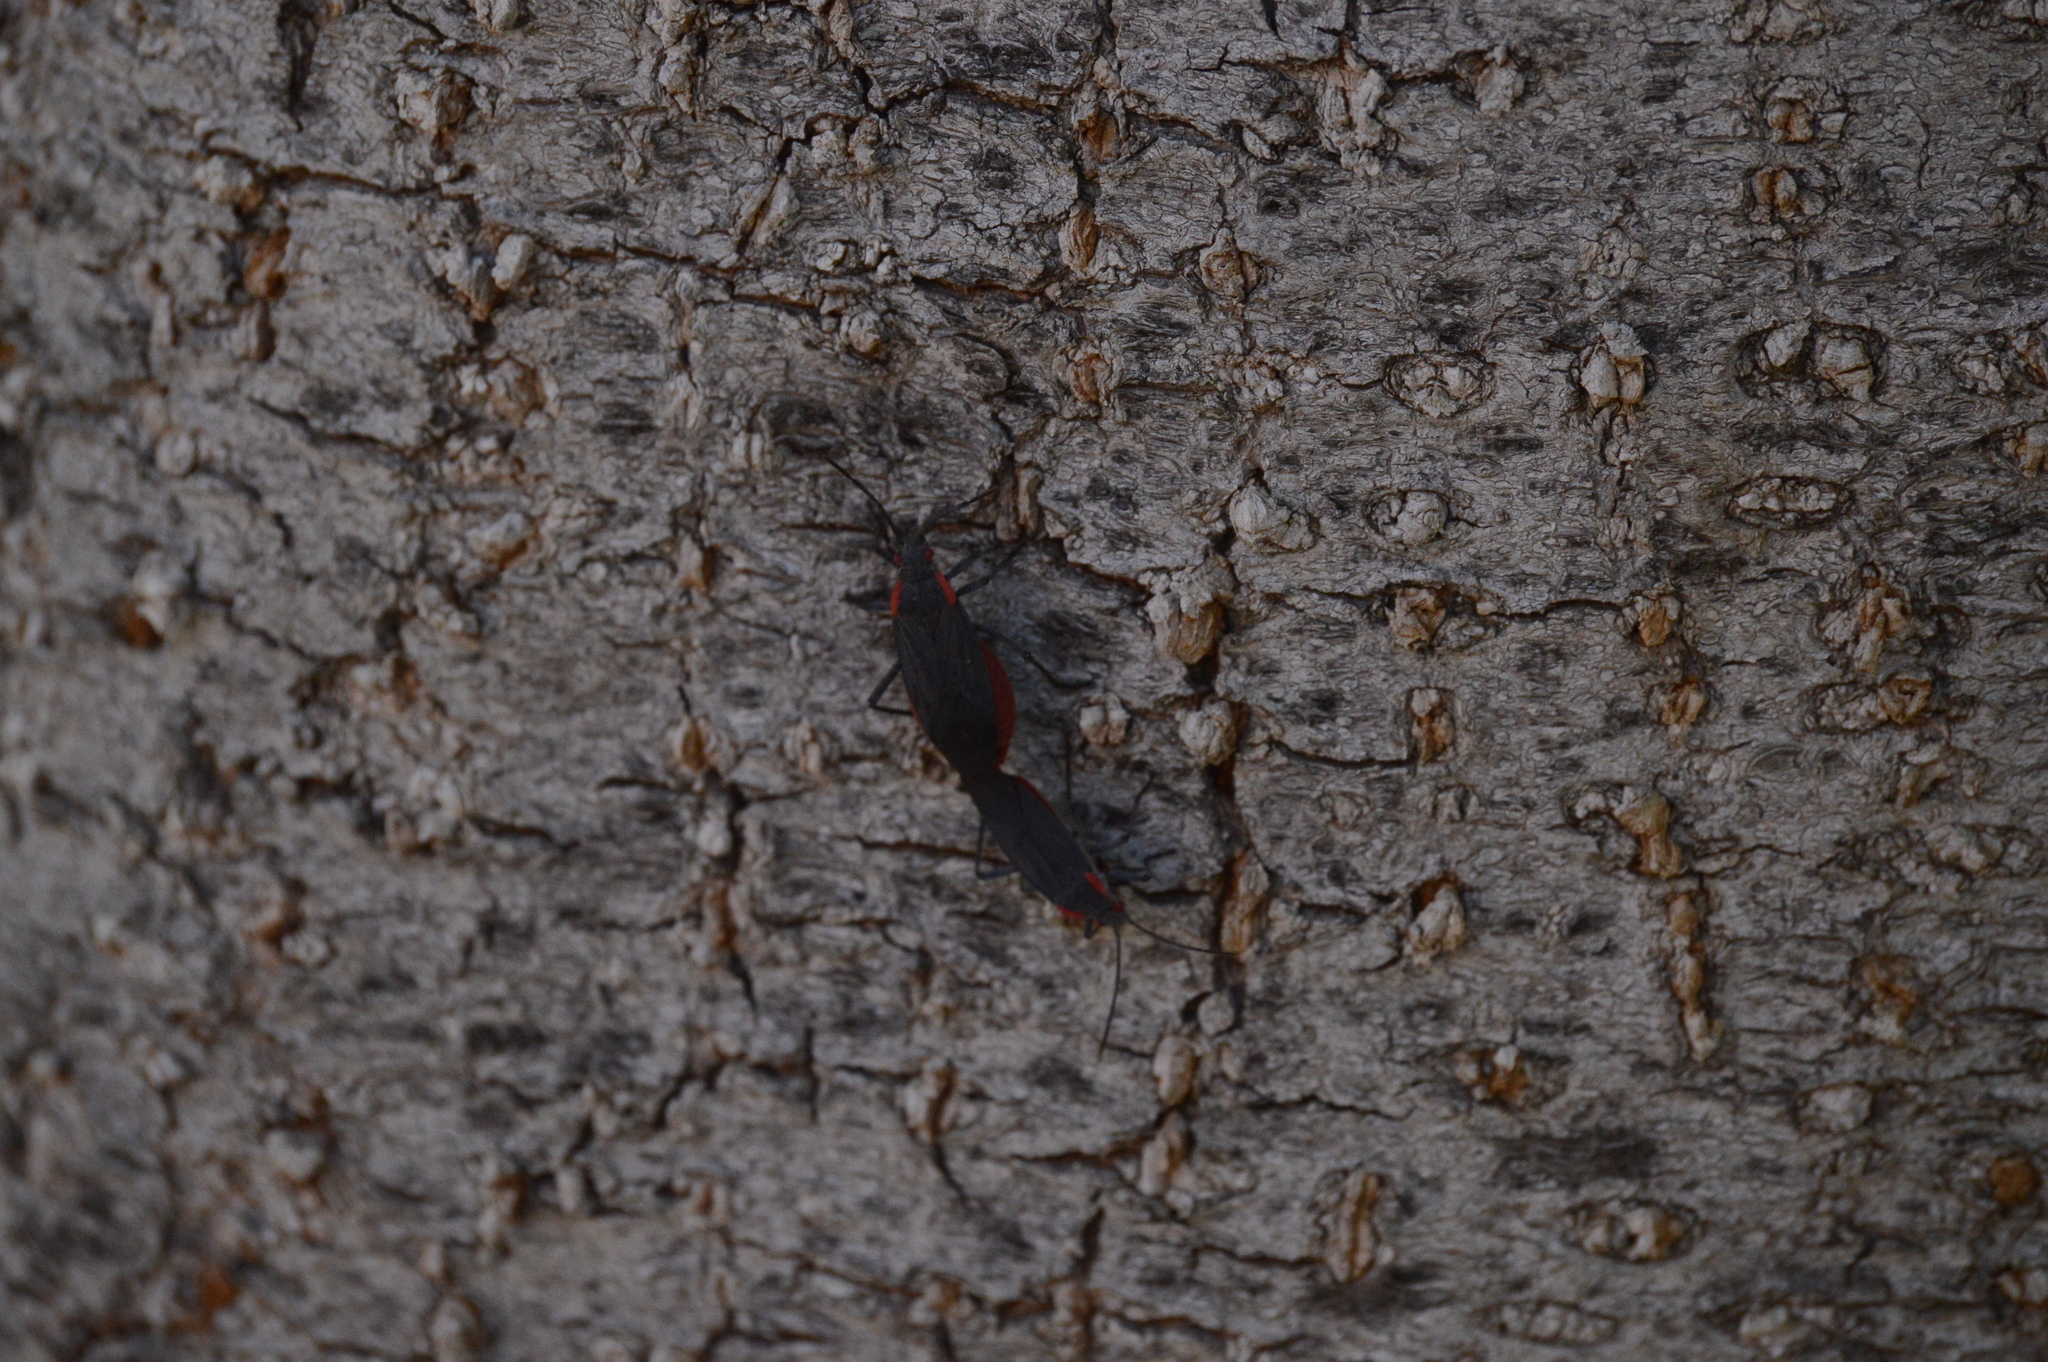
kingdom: Animalia
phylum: Arthropoda
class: Insecta
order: Hemiptera
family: Rhopalidae
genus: Jadera
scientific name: Jadera haematoloma
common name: Red-shouldered bug
